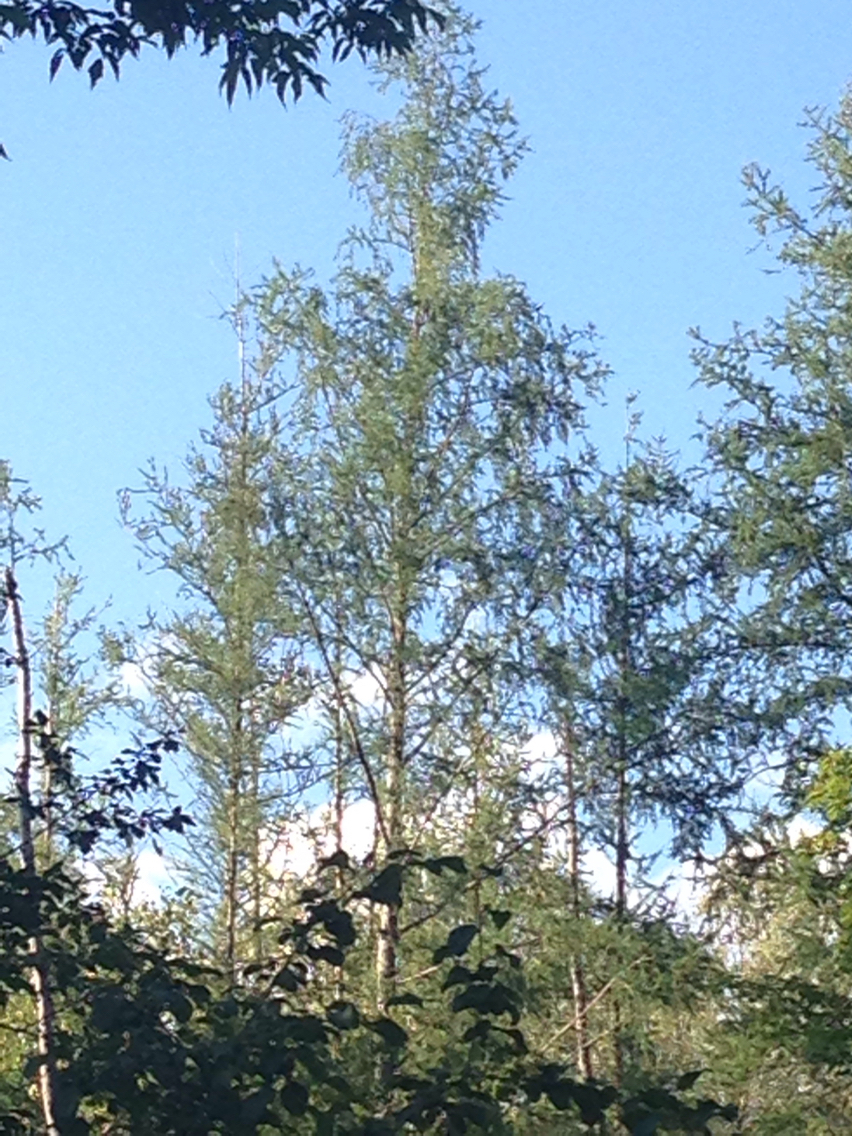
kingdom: Plantae
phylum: Tracheophyta
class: Pinopsida
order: Pinales
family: Pinaceae
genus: Larix
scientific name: Larix laricina
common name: American larch
